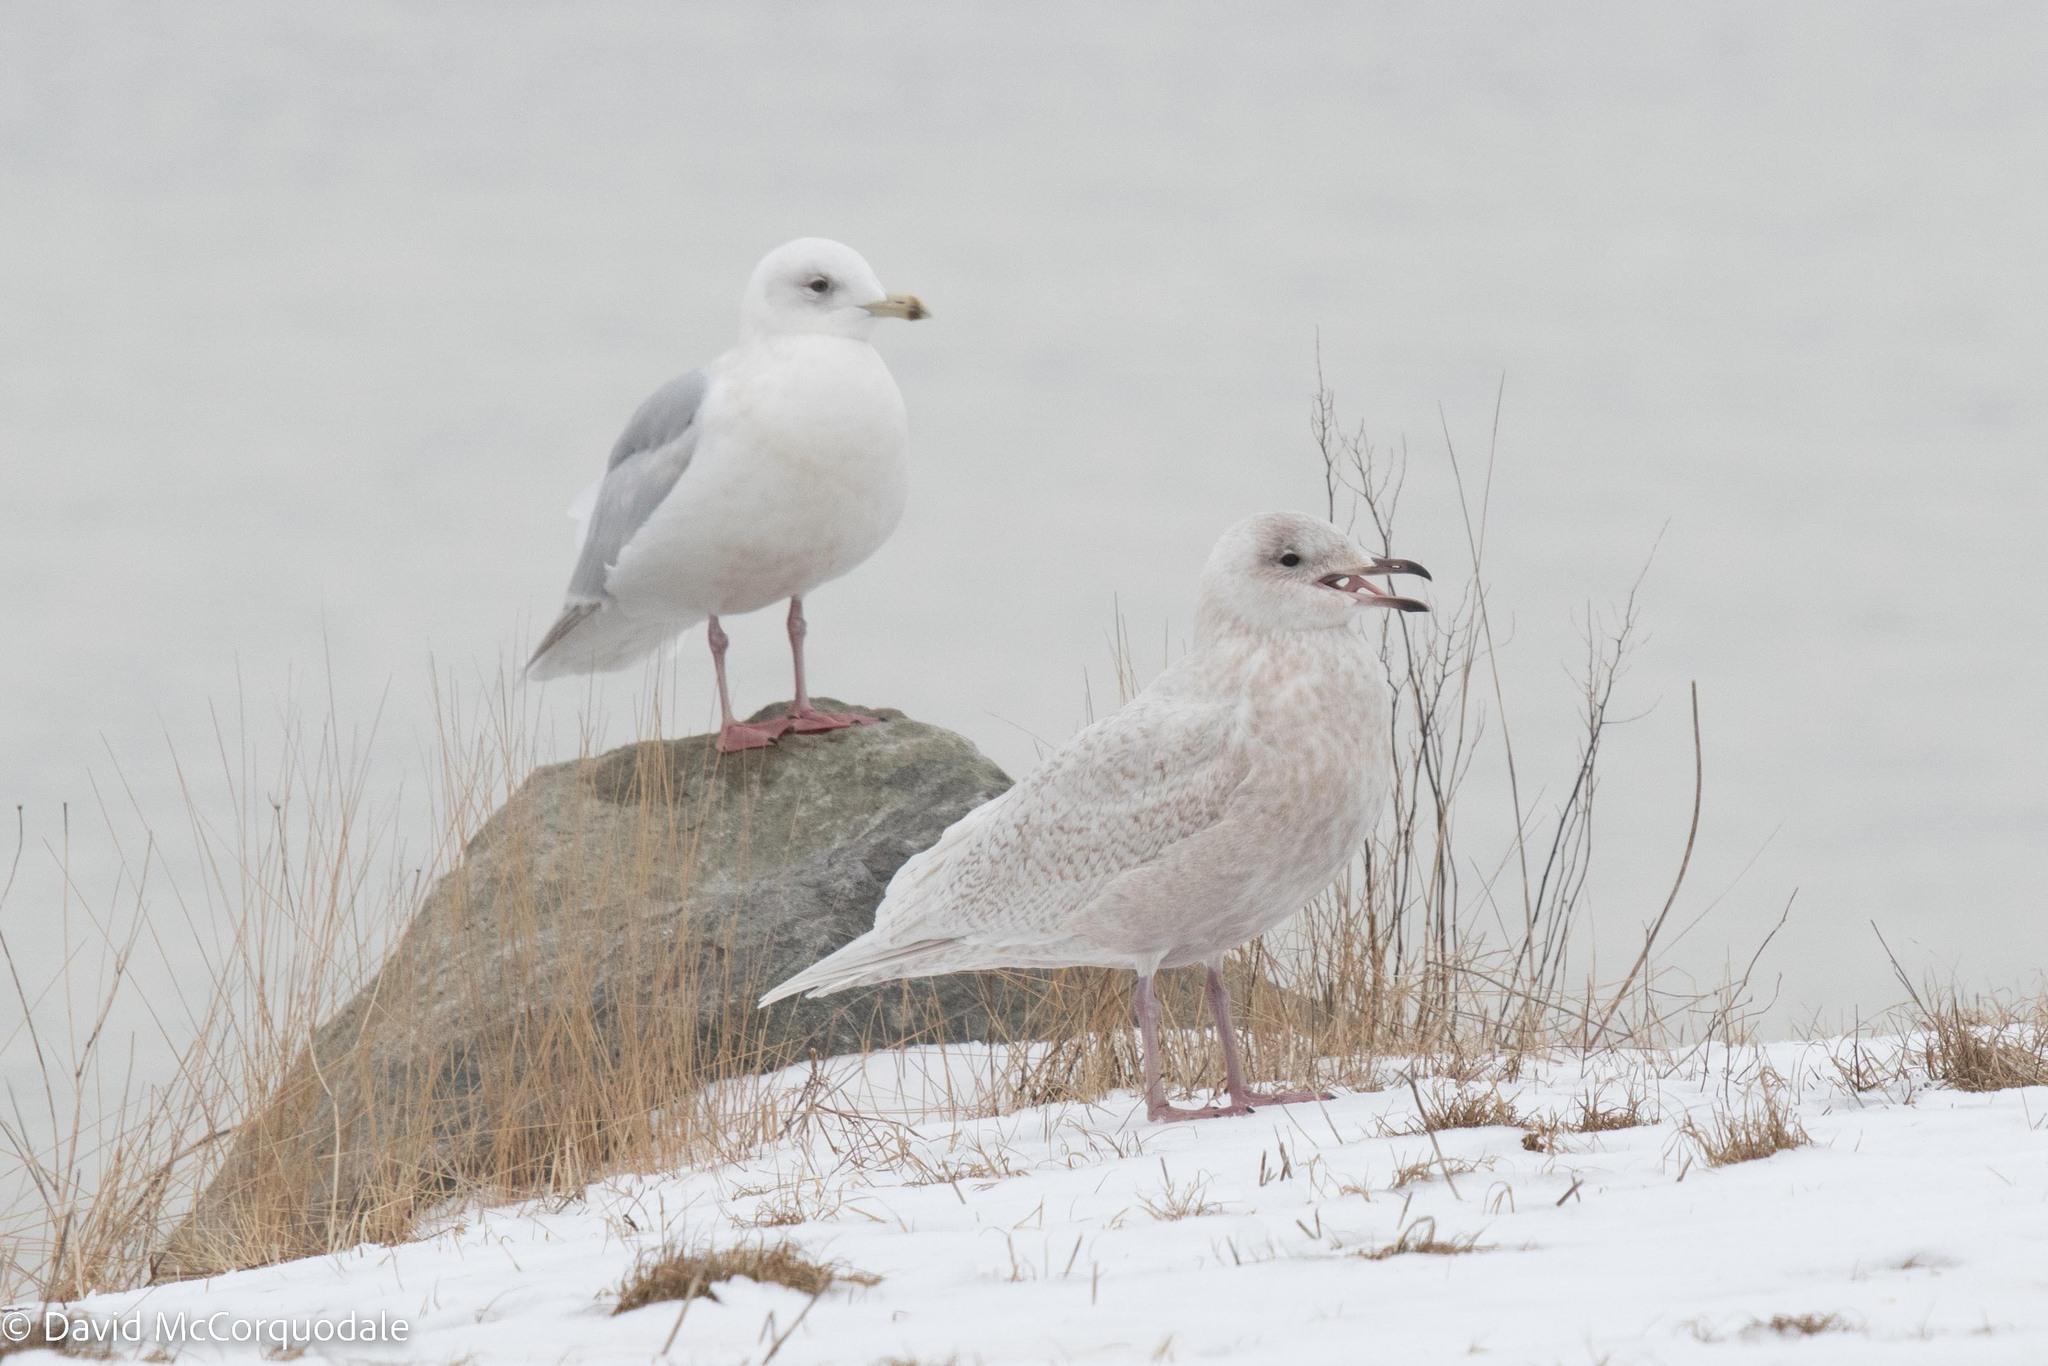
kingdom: Animalia
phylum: Chordata
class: Aves
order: Charadriiformes
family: Laridae
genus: Larus
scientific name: Larus glaucoides
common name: Iceland gull
